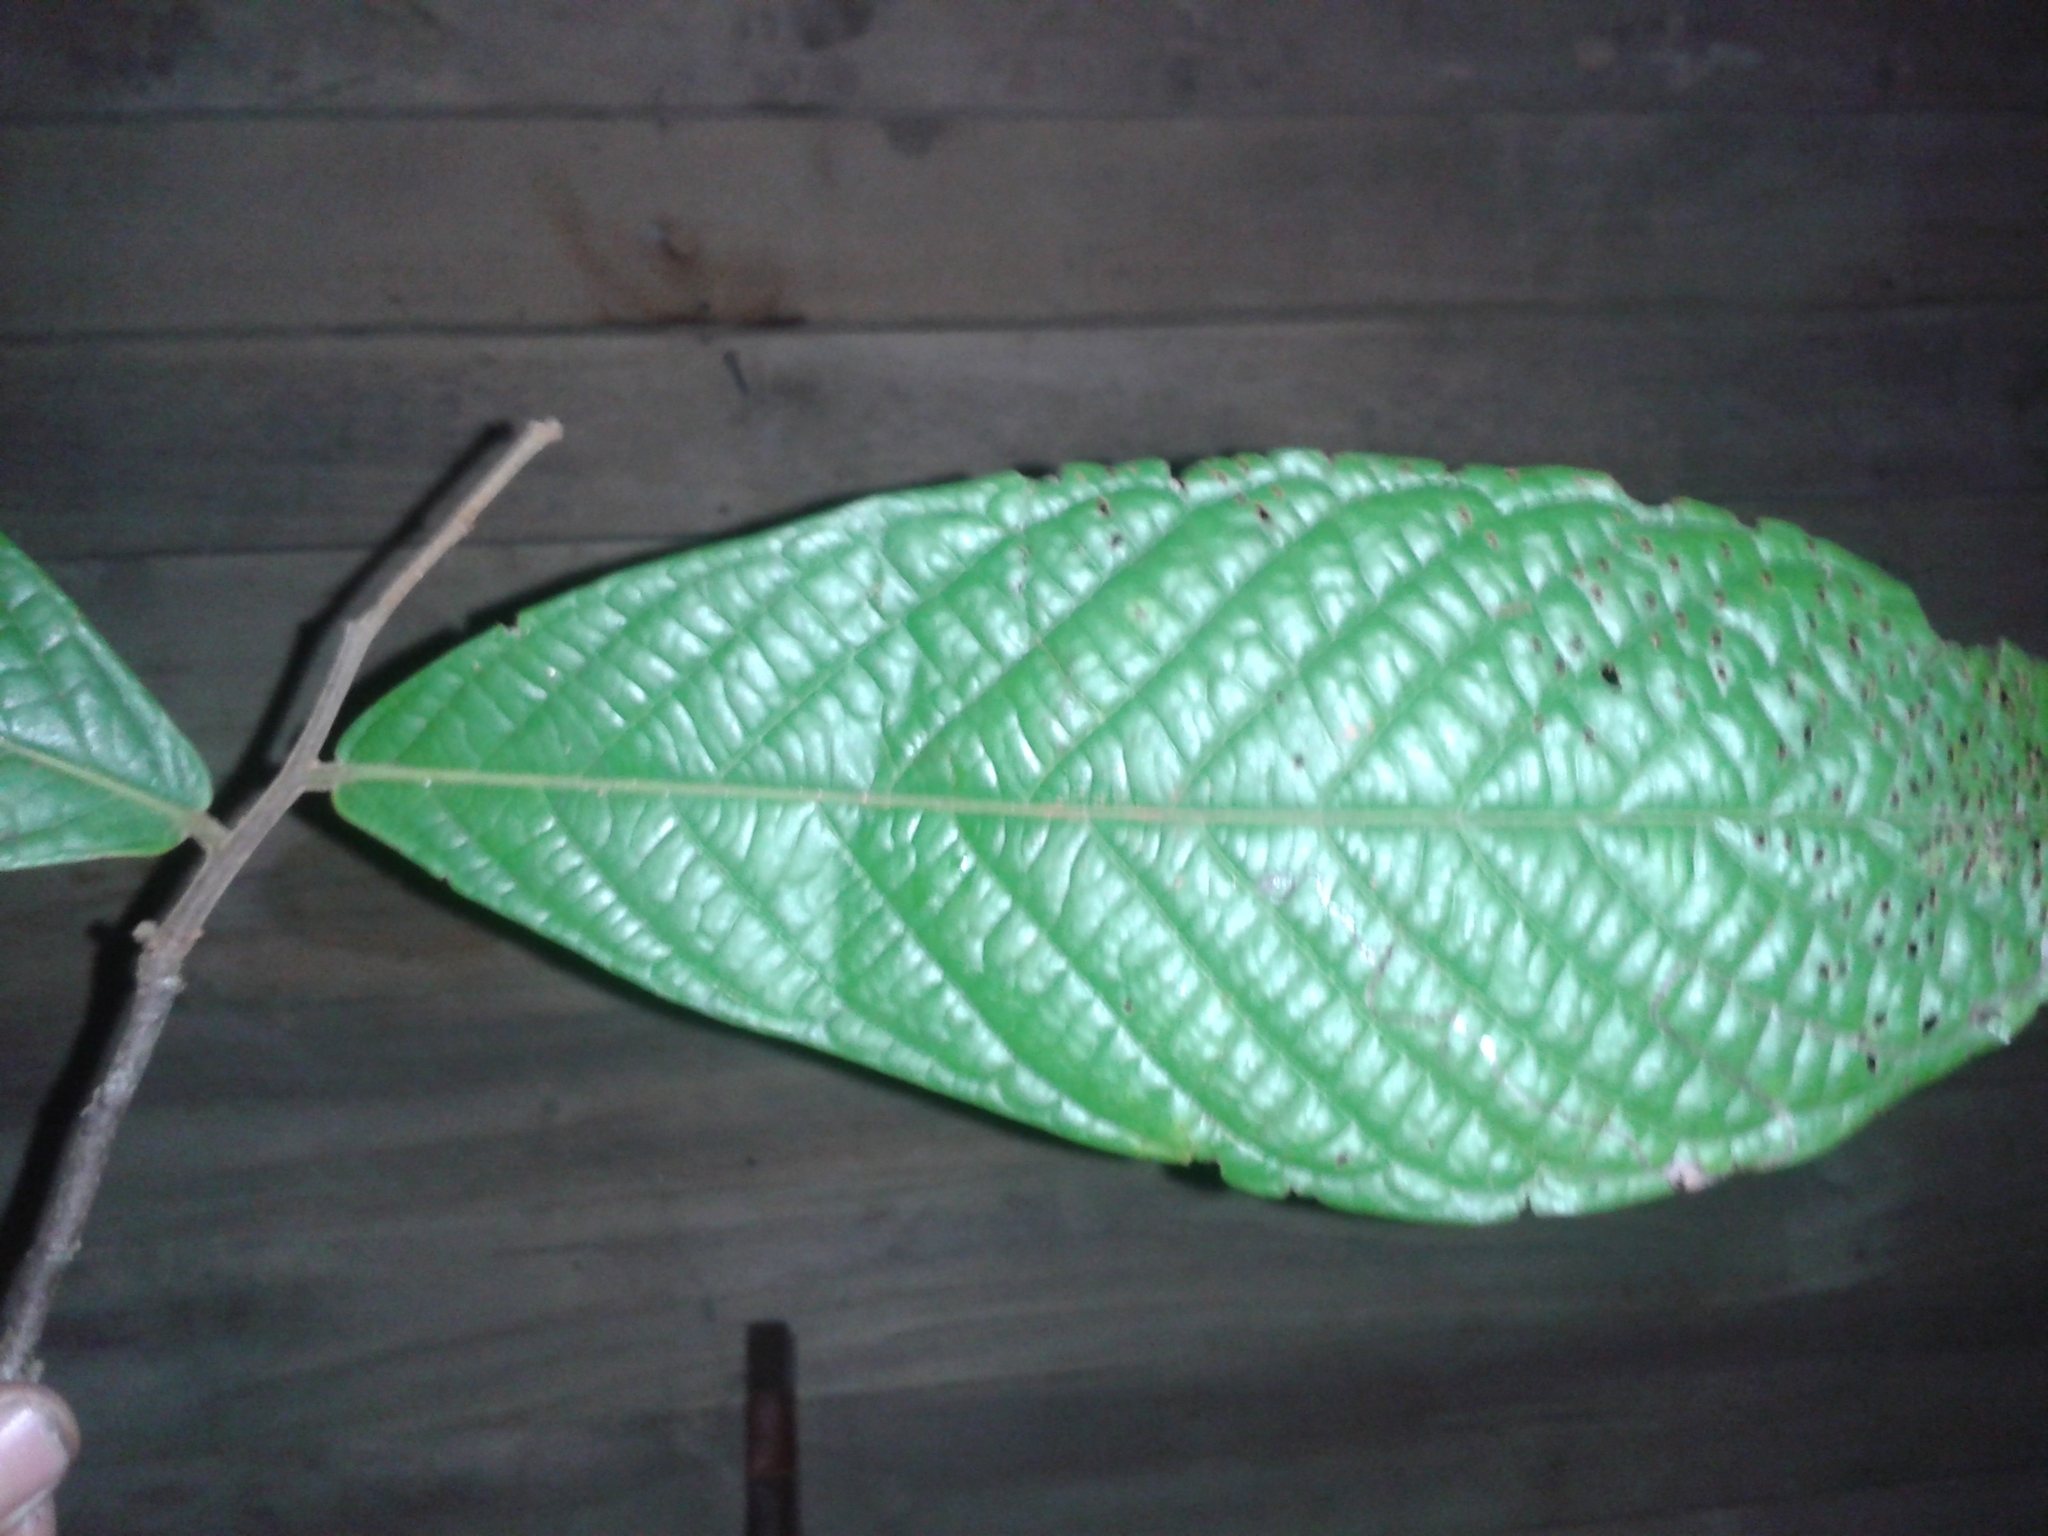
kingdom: Plantae
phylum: Tracheophyta
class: Magnoliopsida
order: Magnoliales
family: Annonaceae
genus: Unonopsis
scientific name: Unonopsis theobromifolia
